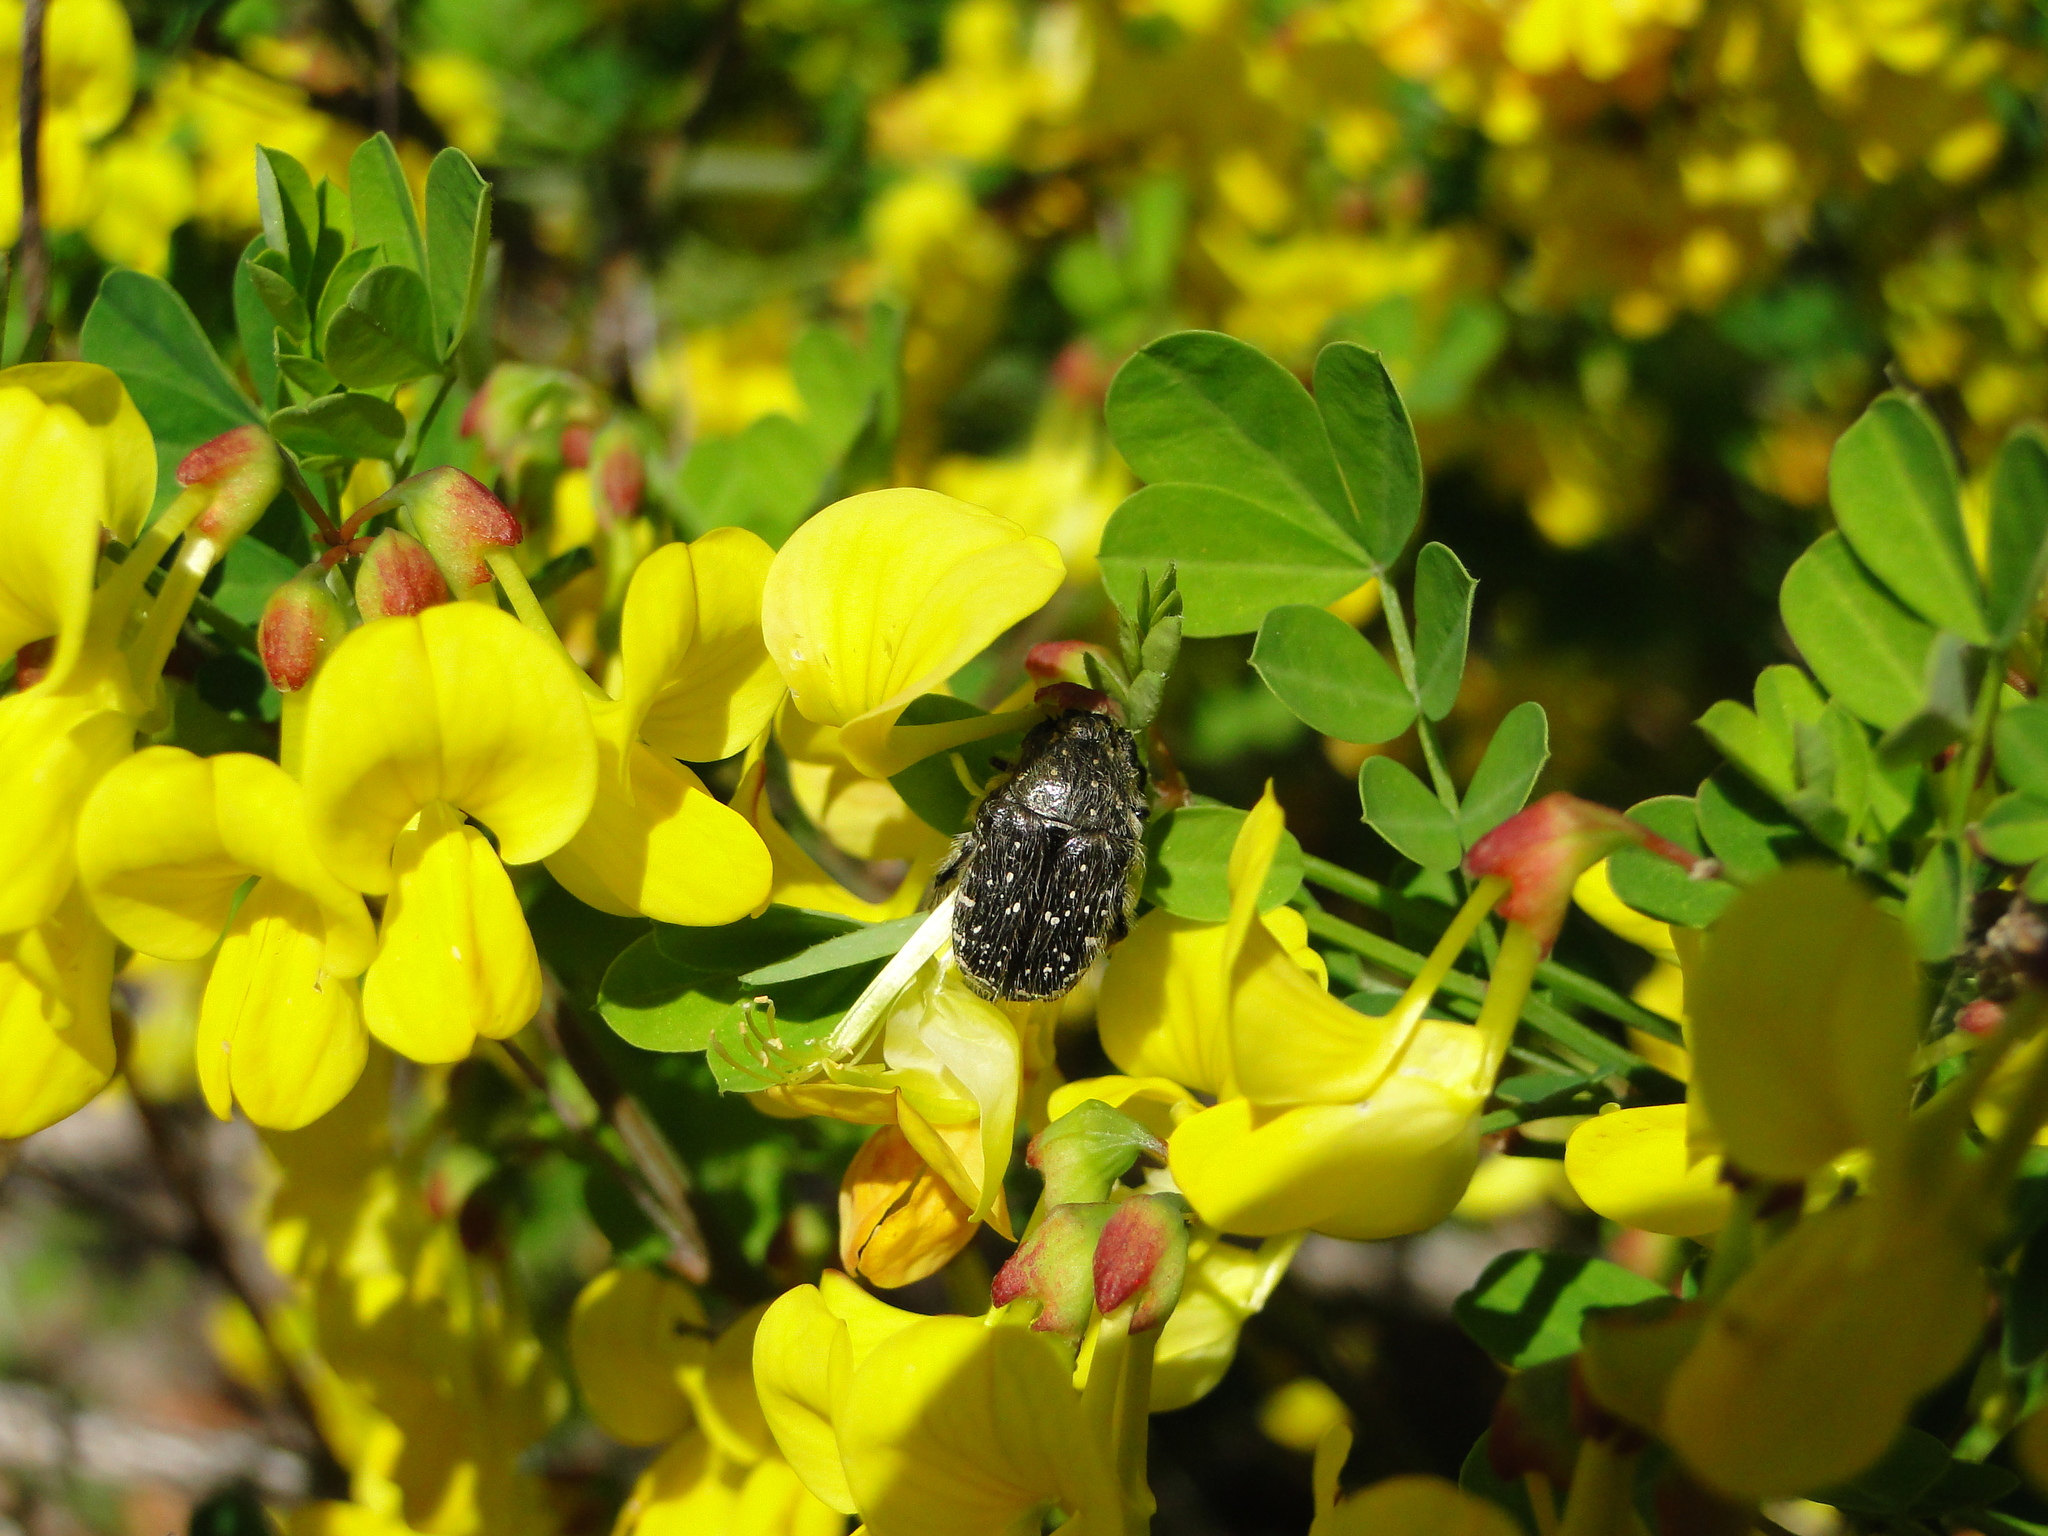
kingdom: Animalia
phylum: Arthropoda
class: Insecta
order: Coleoptera
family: Scarabaeidae
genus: Oxythyrea
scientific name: Oxythyrea funesta
